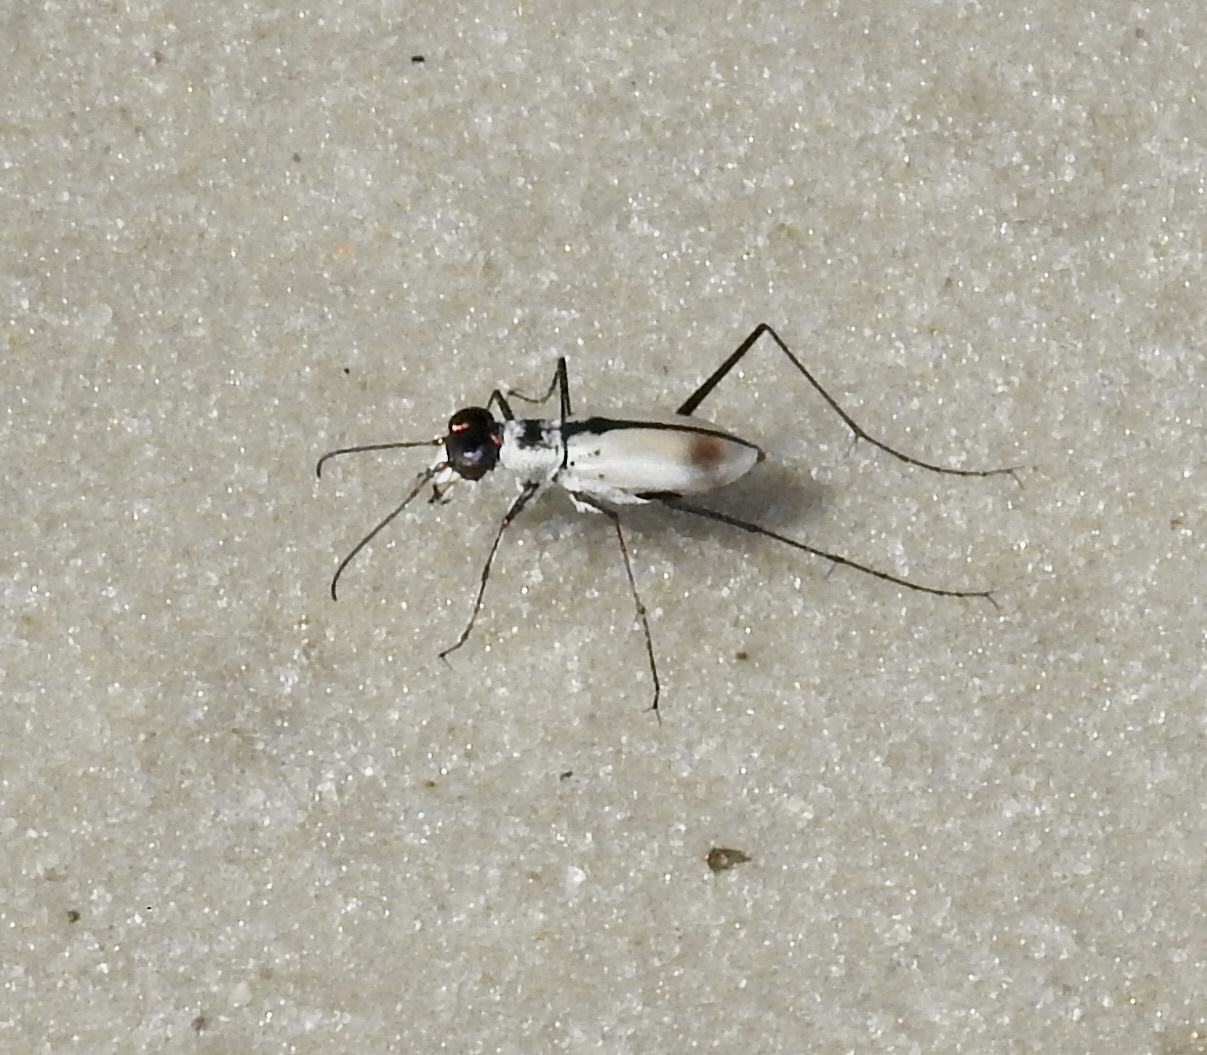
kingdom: Animalia
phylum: Arthropoda
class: Insecta
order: Coleoptera
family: Carabidae
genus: Habroscelimorpha
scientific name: Habroscelimorpha dorsalis
